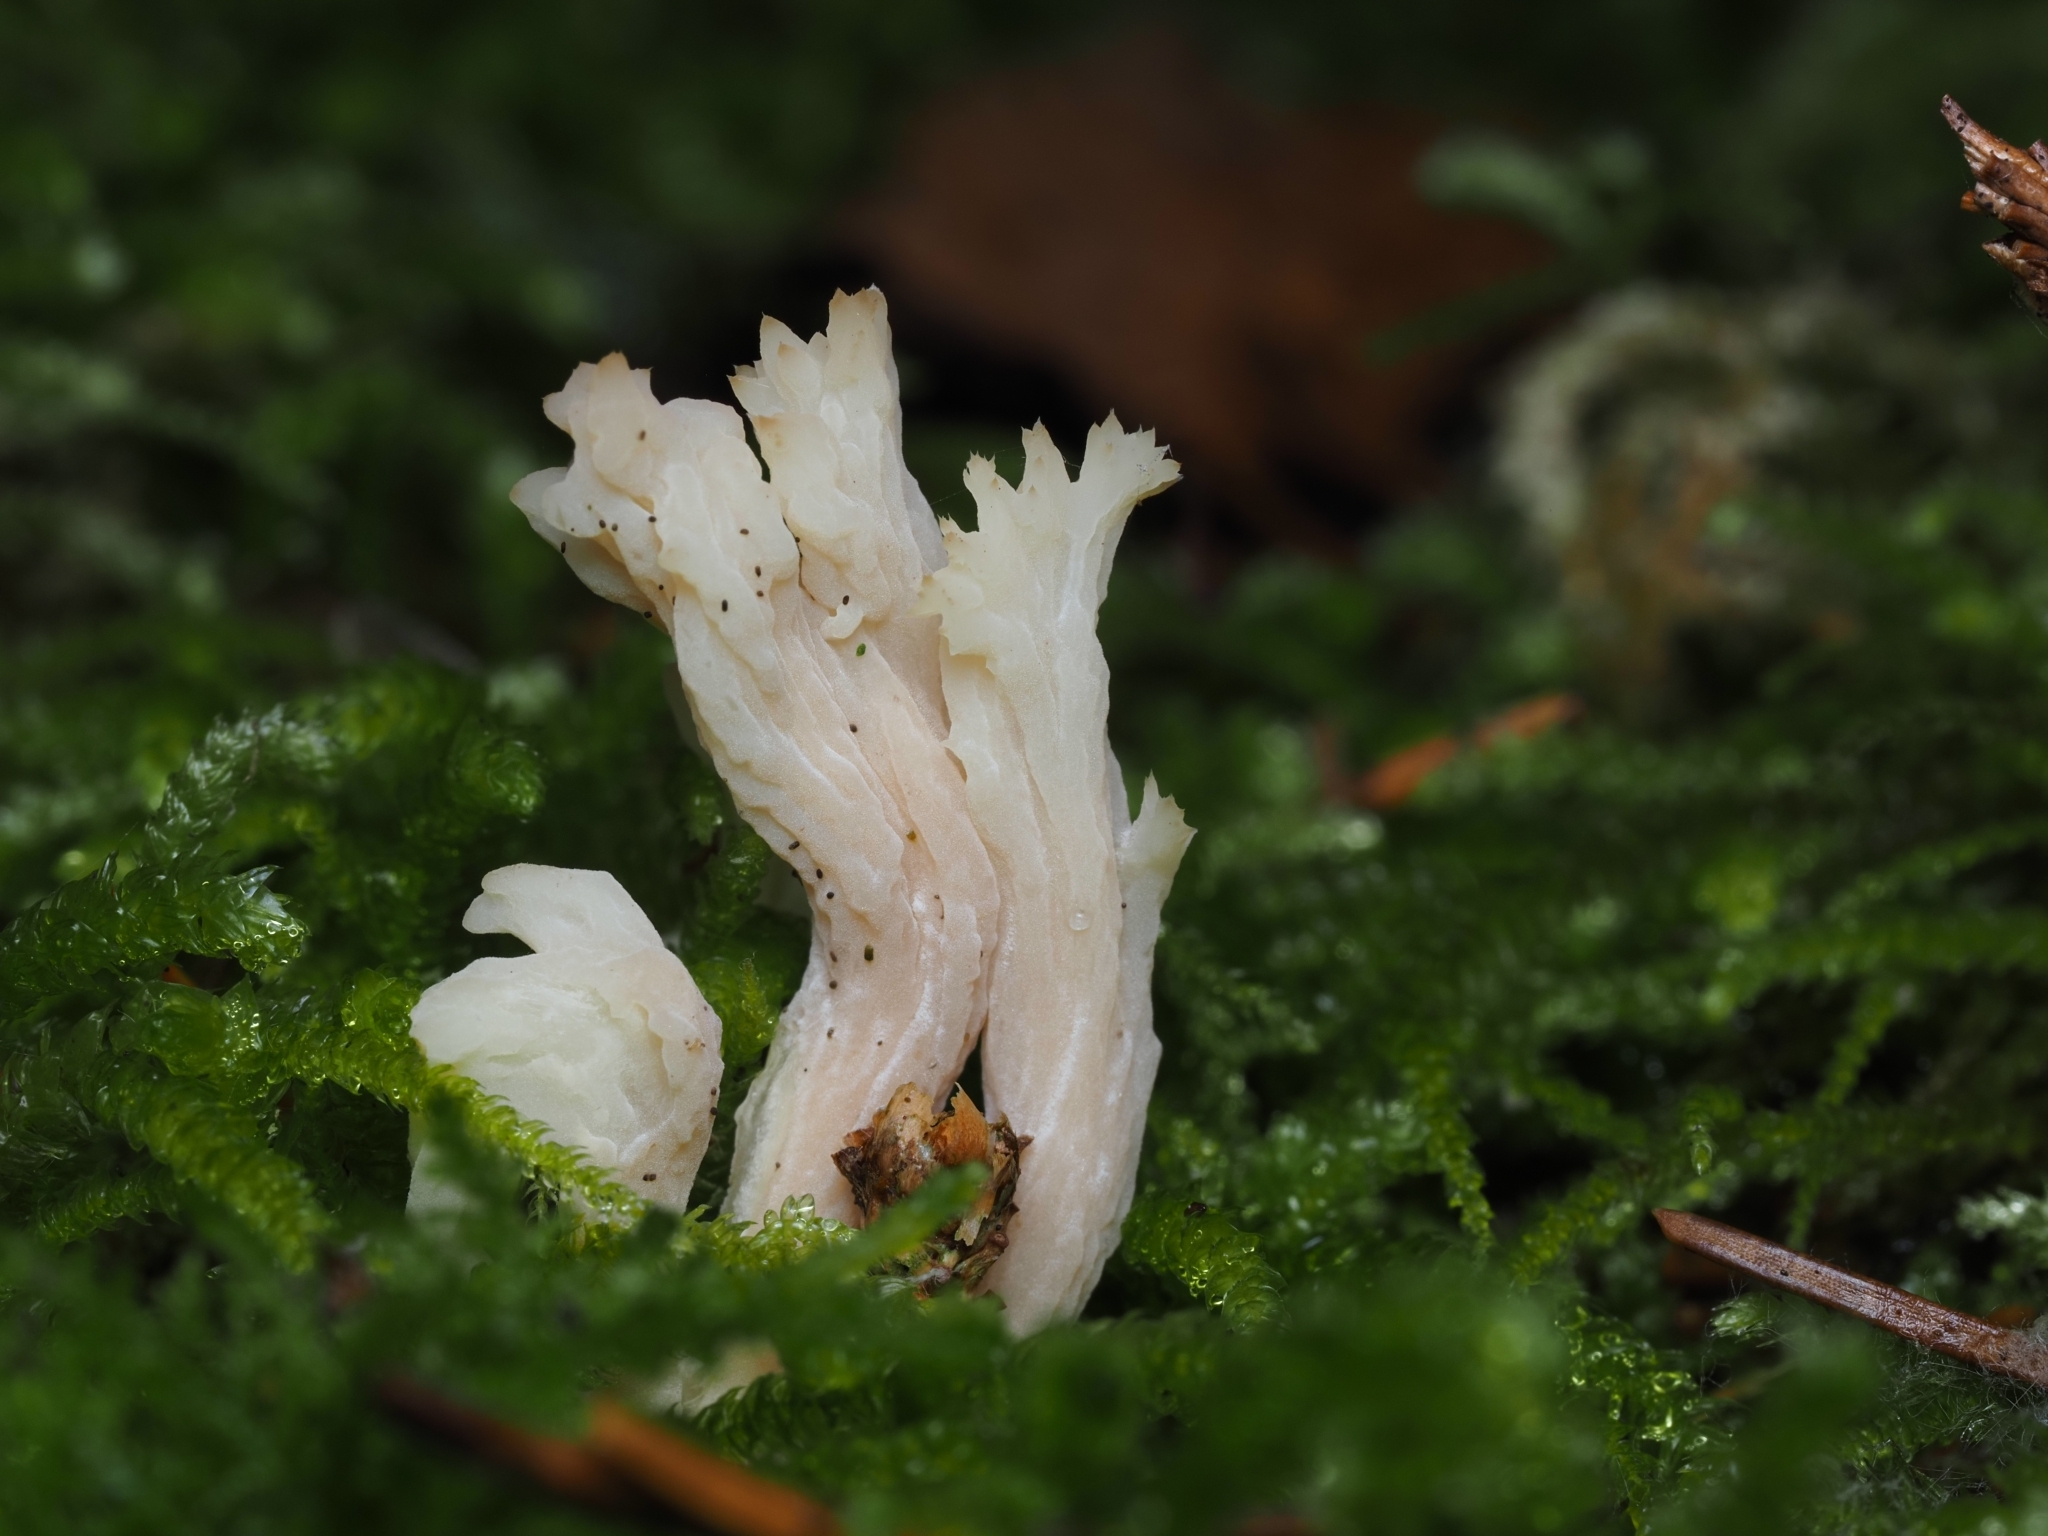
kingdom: Fungi
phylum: Basidiomycota
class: Agaricomycetes
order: Cantharellales
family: Hydnaceae
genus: Clavulina
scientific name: Clavulina rugosa
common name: Wrinkled club
